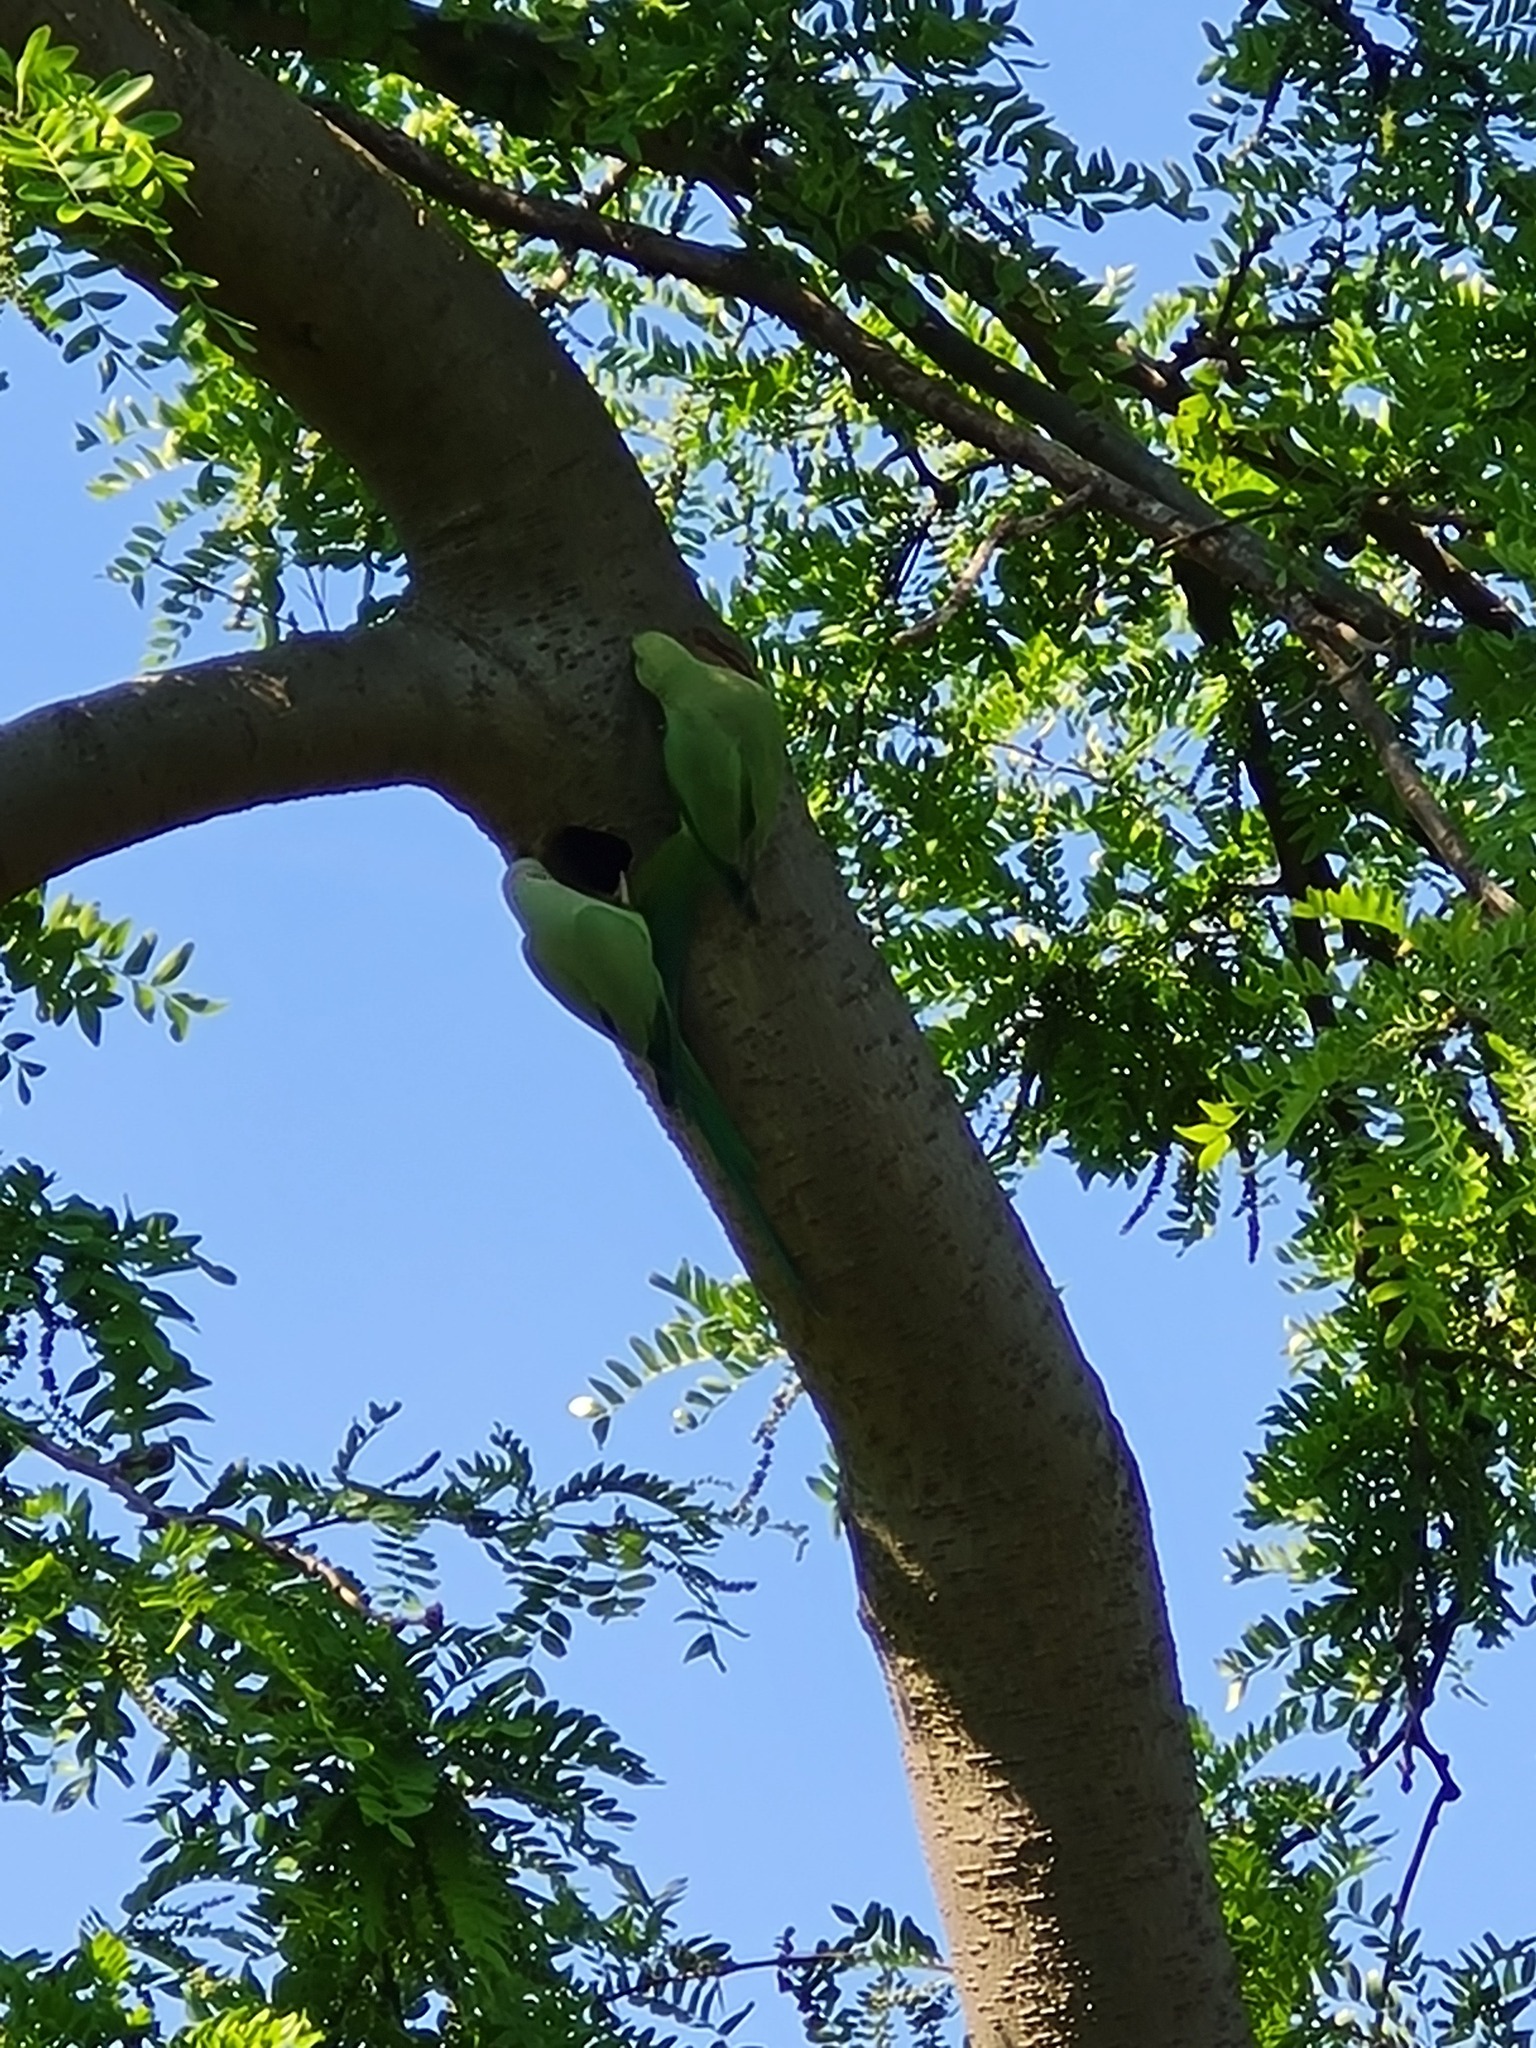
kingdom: Animalia
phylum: Chordata
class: Aves
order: Psittaciformes
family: Psittacidae
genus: Psittacula
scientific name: Psittacula krameri
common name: Rose-ringed parakeet
